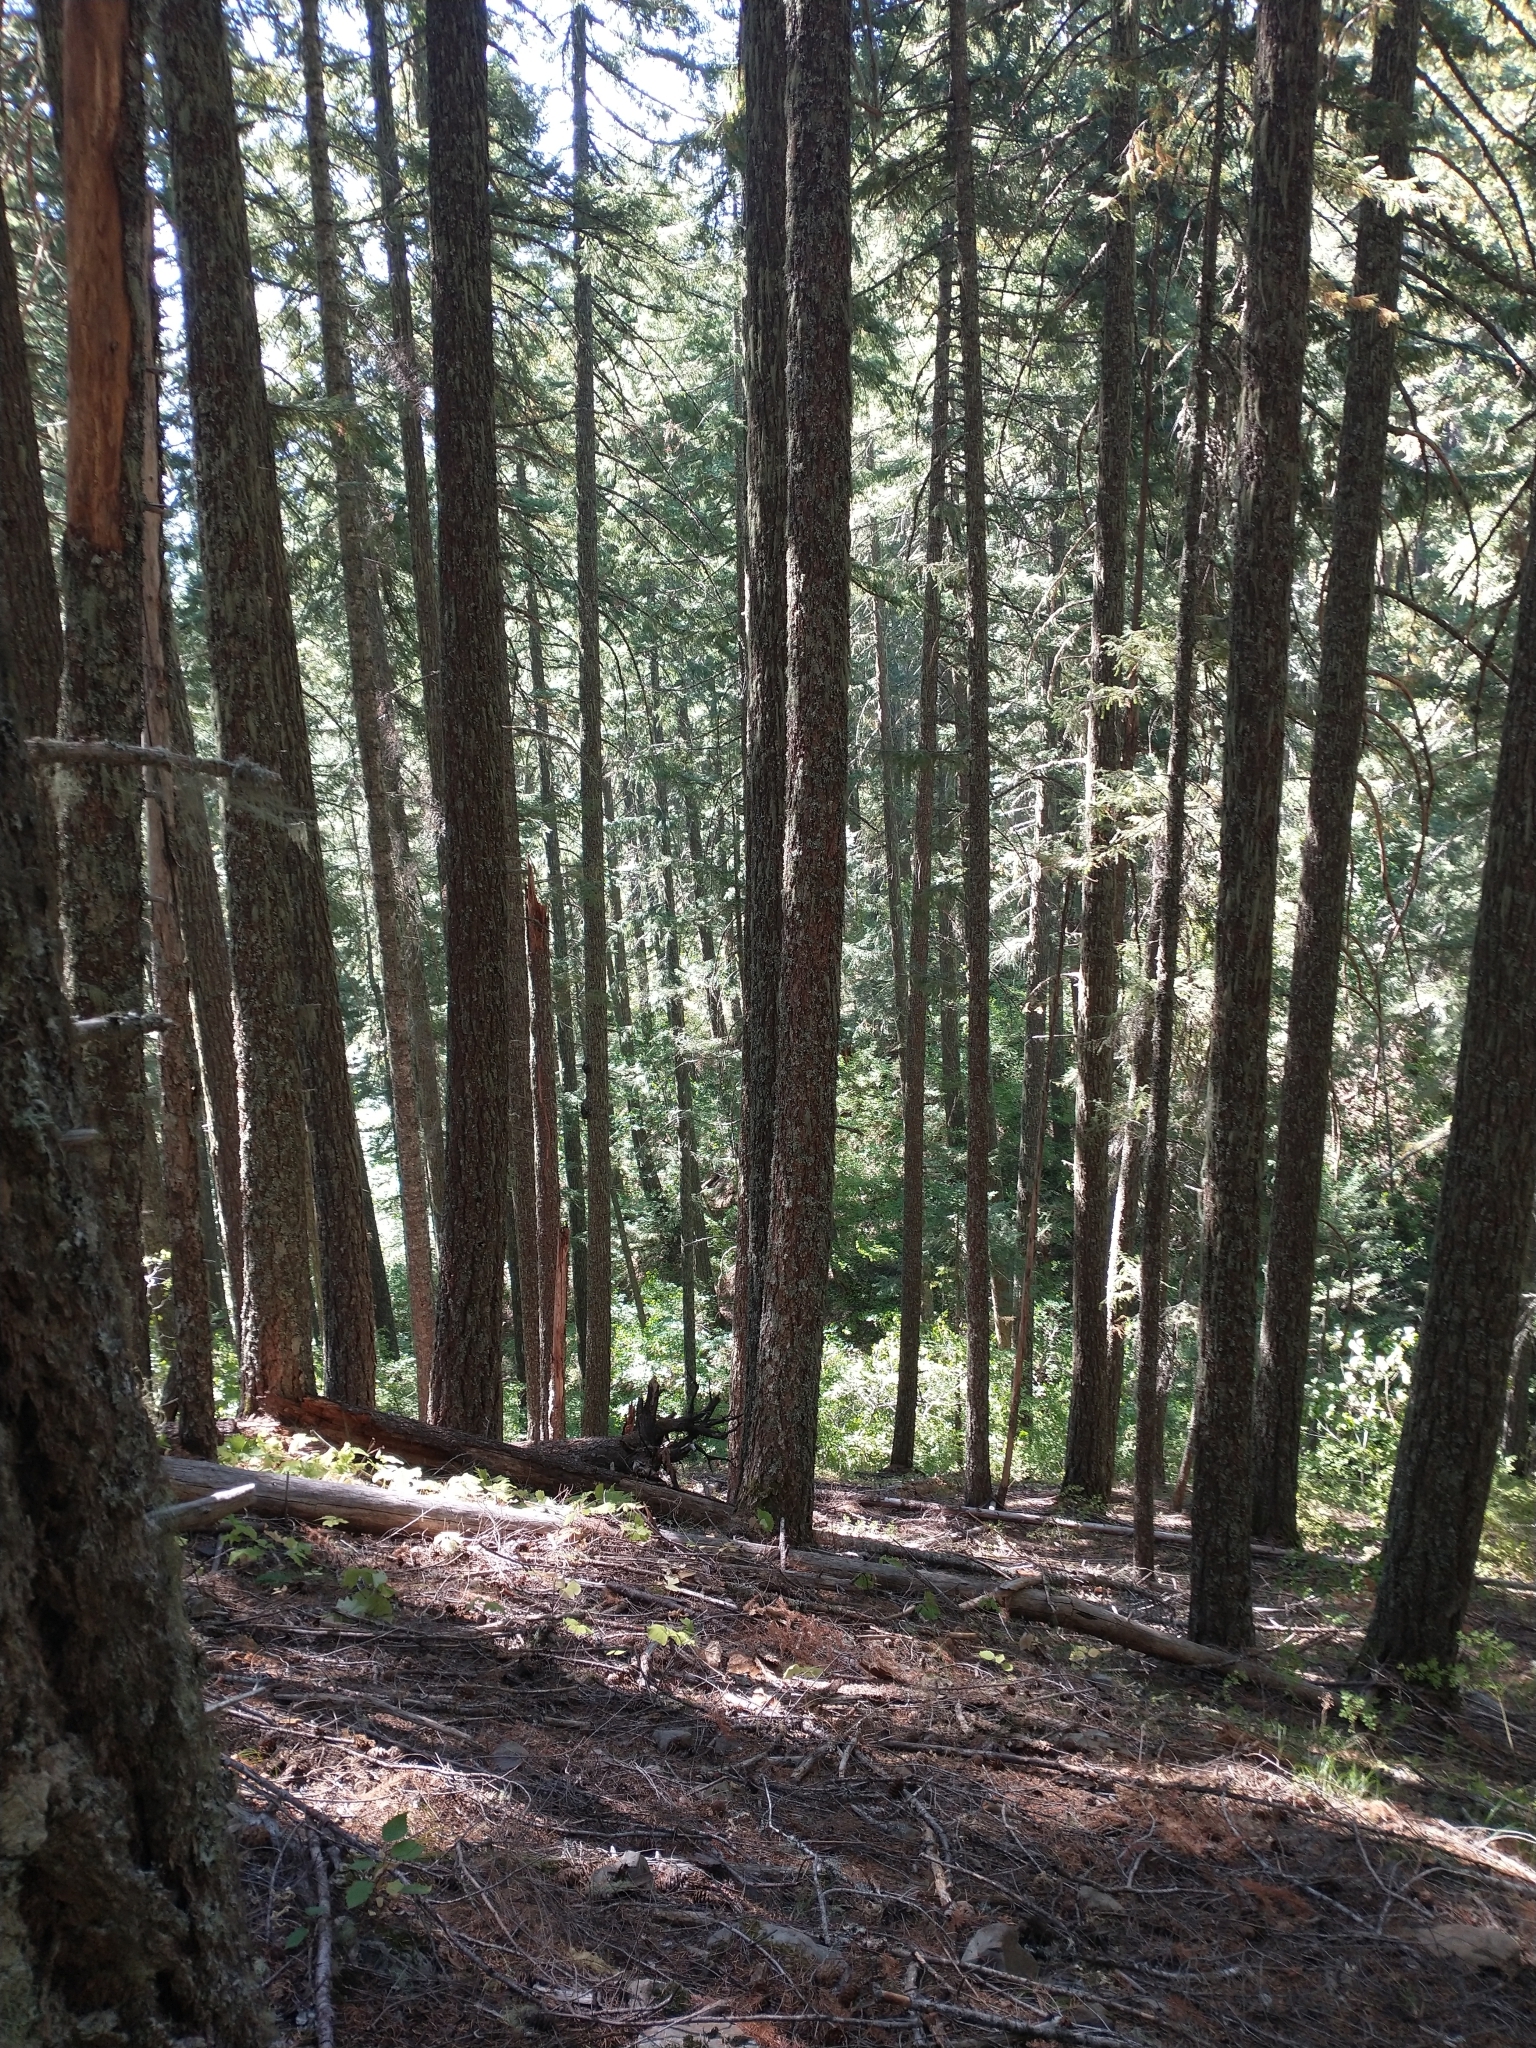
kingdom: Plantae
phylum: Tracheophyta
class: Pinopsida
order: Pinales
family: Pinaceae
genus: Pseudotsuga
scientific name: Pseudotsuga menziesii
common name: Douglas fir
